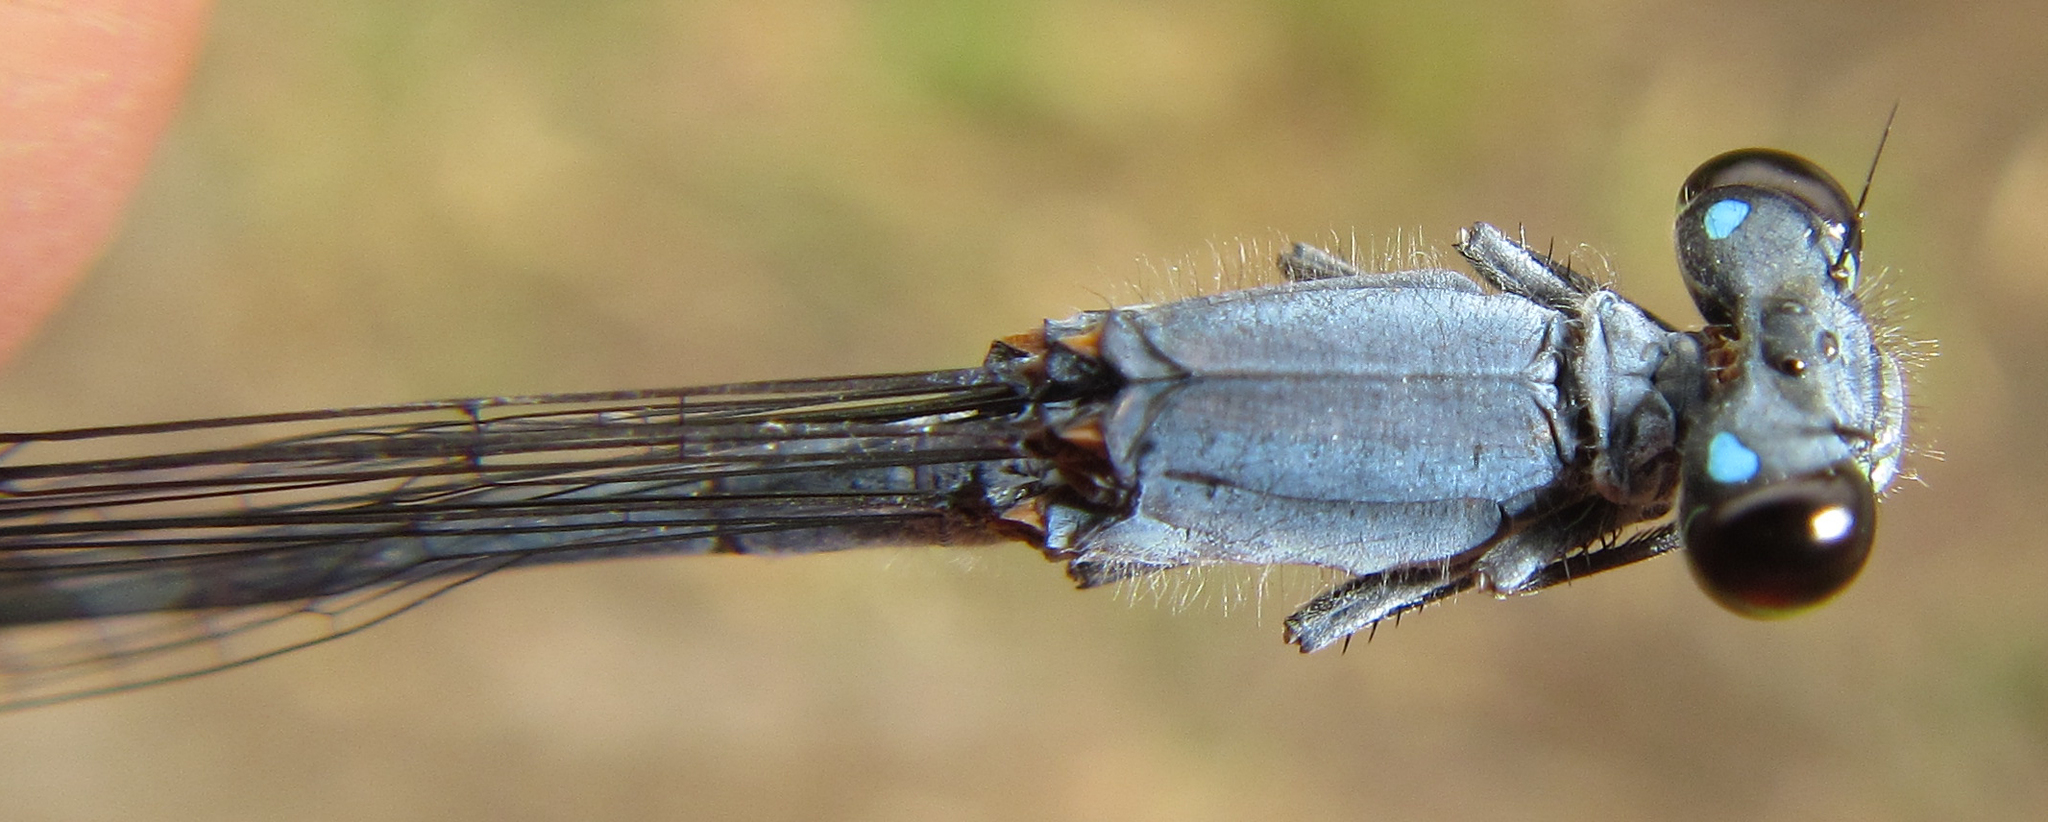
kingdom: Animalia
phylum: Arthropoda
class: Insecta
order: Odonata
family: Coenagrionidae
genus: Pseudagrion
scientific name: Pseudagrion salisburyense
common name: Slate sprite
